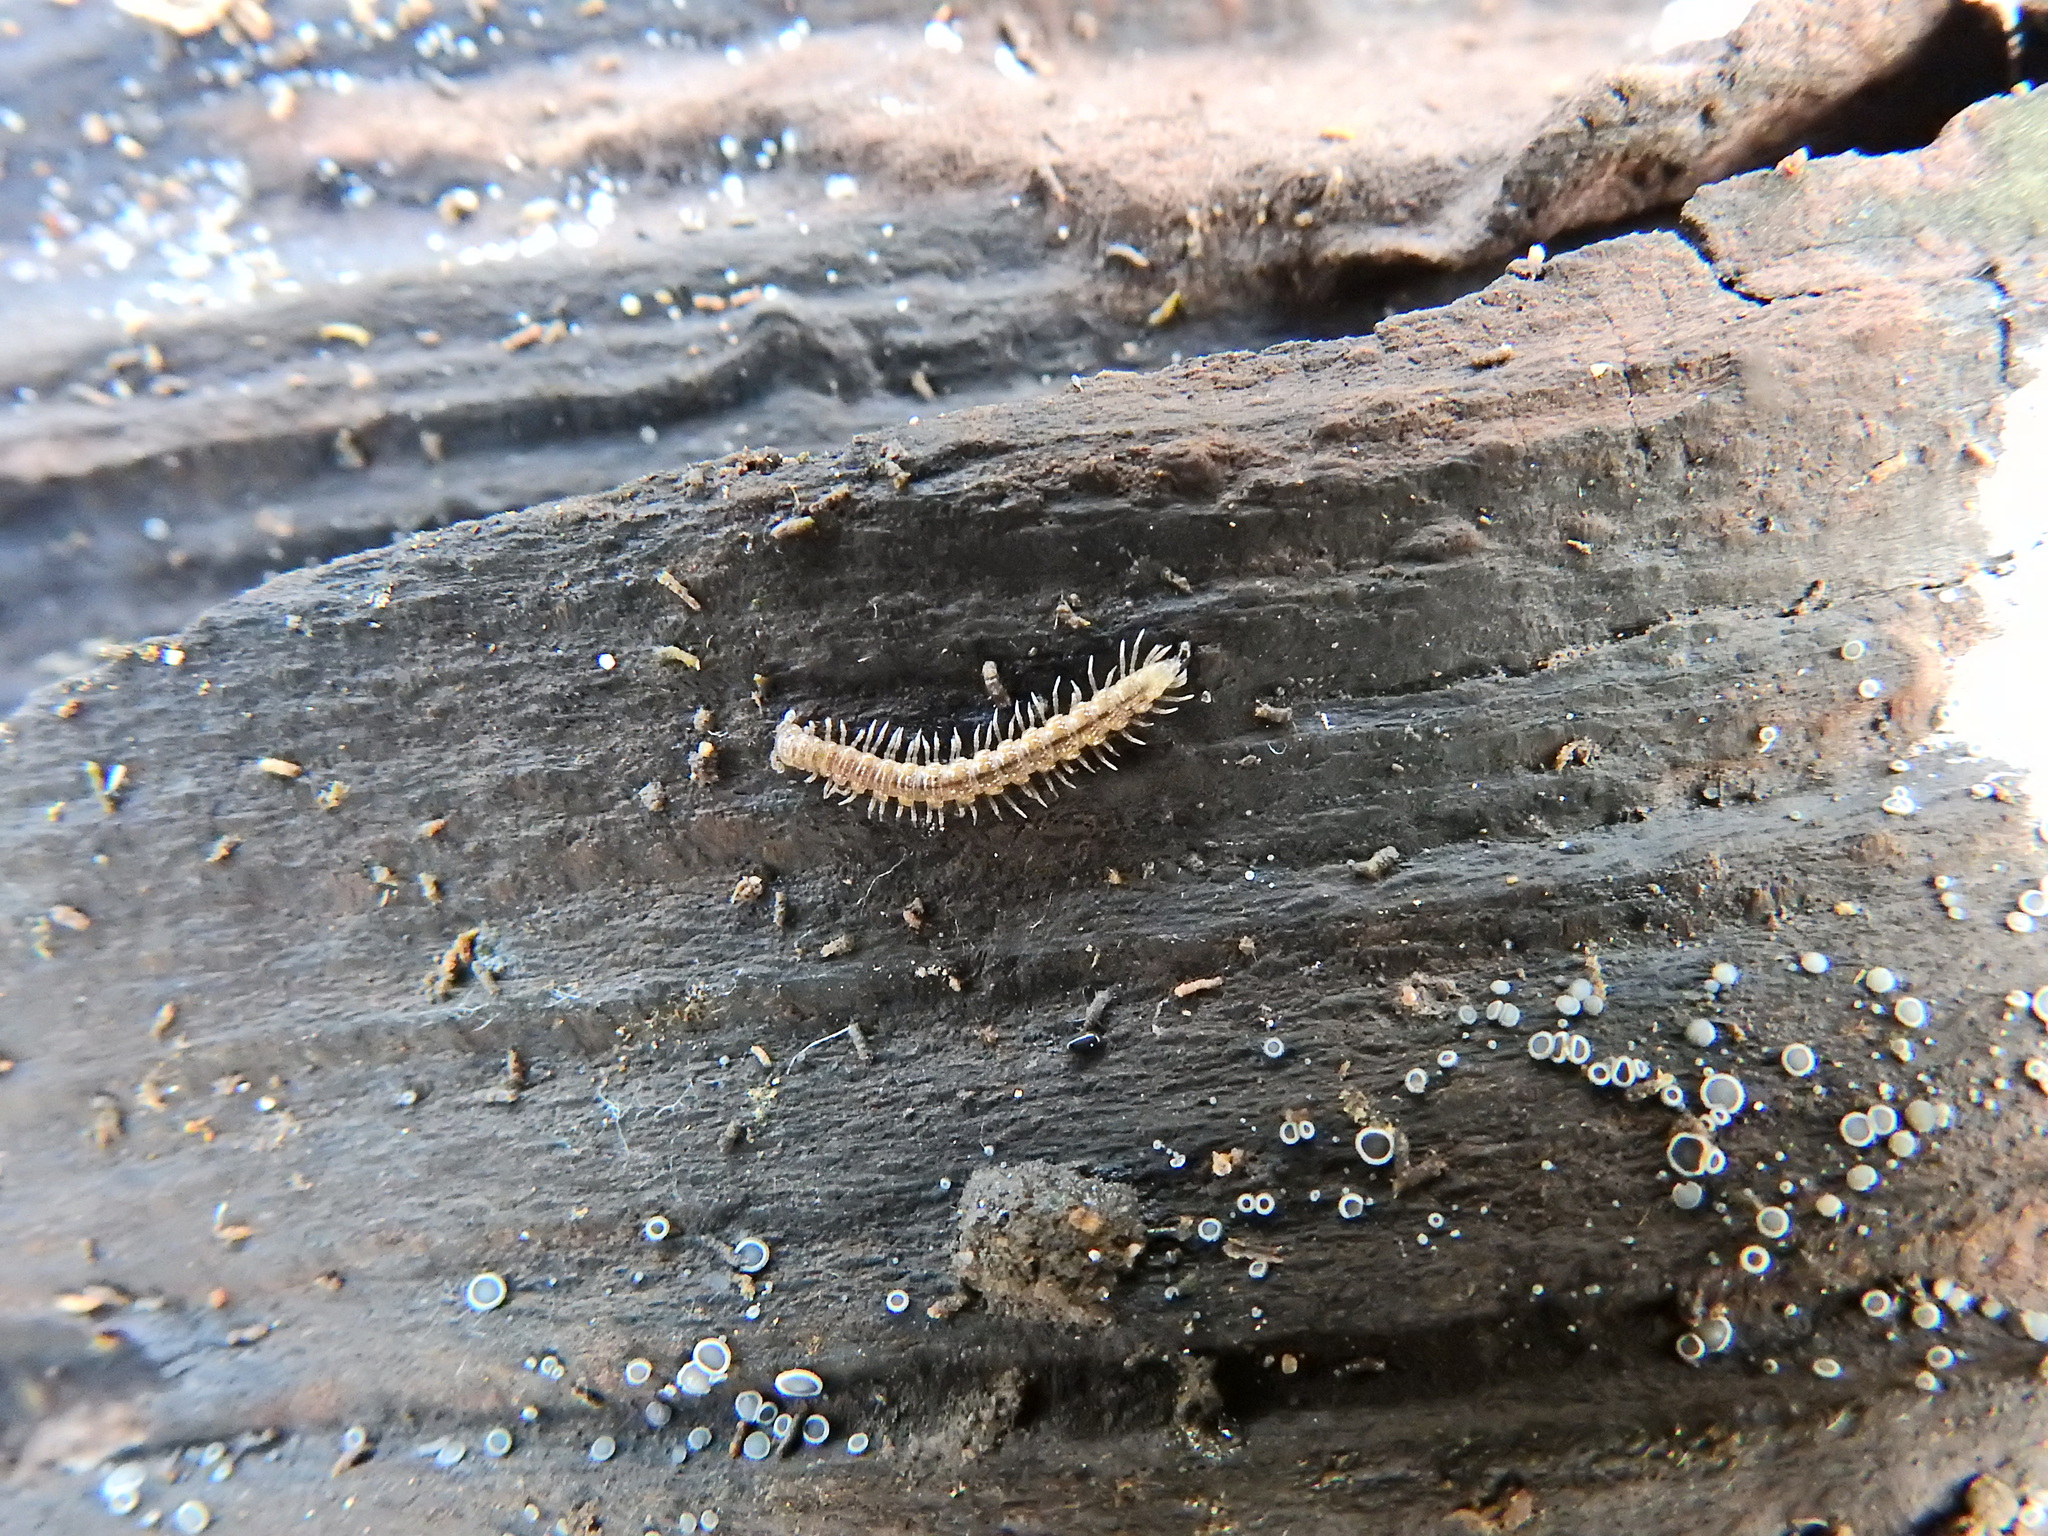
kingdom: Animalia
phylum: Arthropoda
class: Diplopoda
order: Polydesmida
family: Polydesmidae
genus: Brachydesmus
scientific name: Brachydesmus superus
